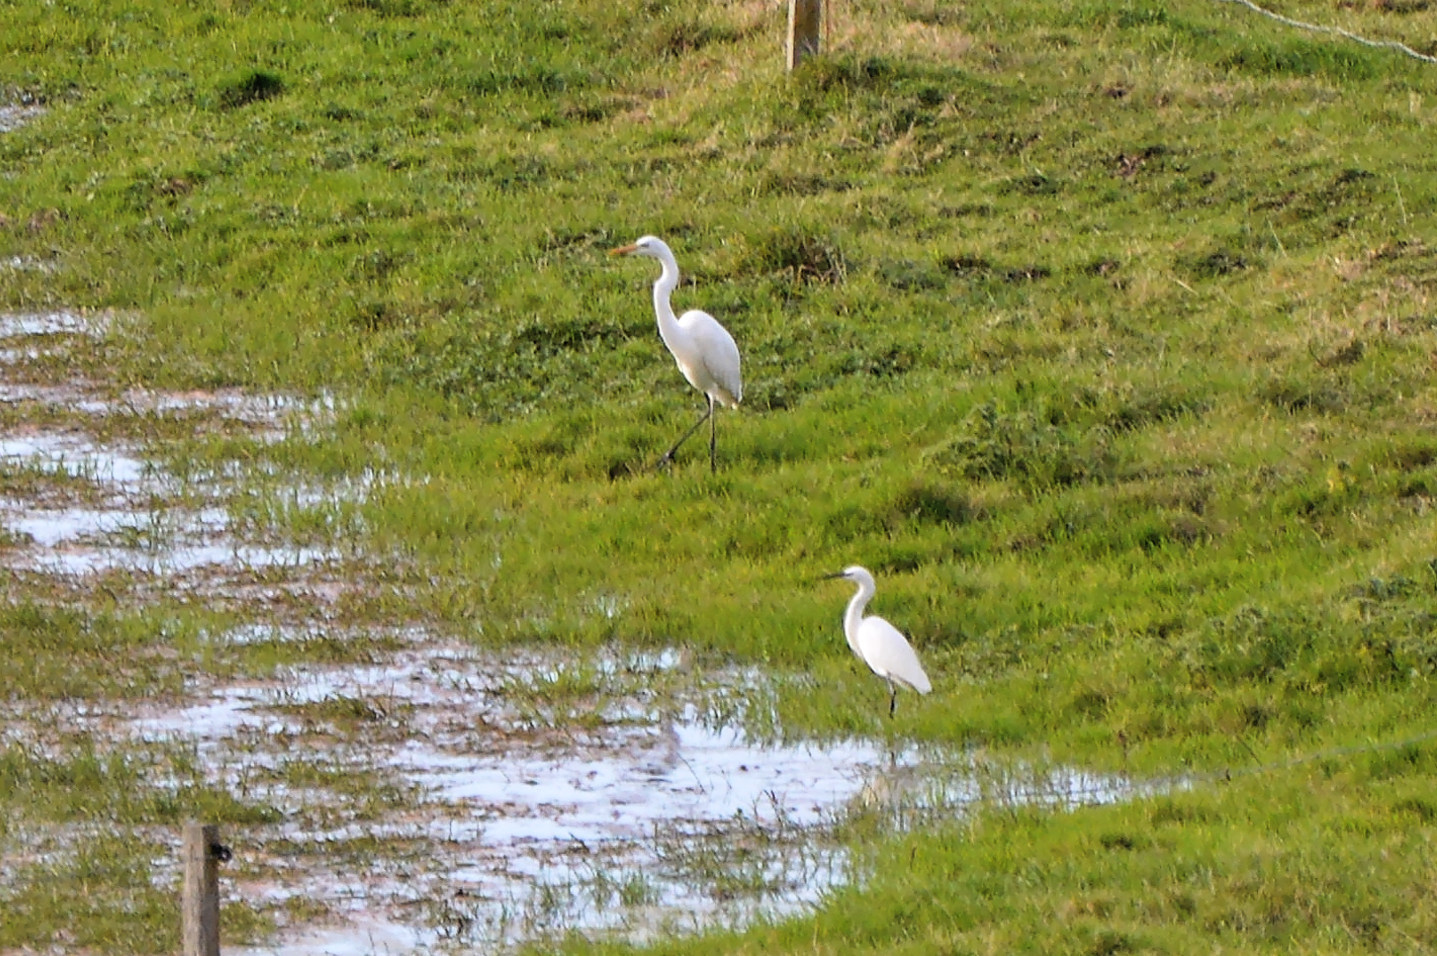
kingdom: Animalia
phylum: Chordata
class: Aves
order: Pelecaniformes
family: Ardeidae
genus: Ardea
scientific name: Ardea alba
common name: Great egret
